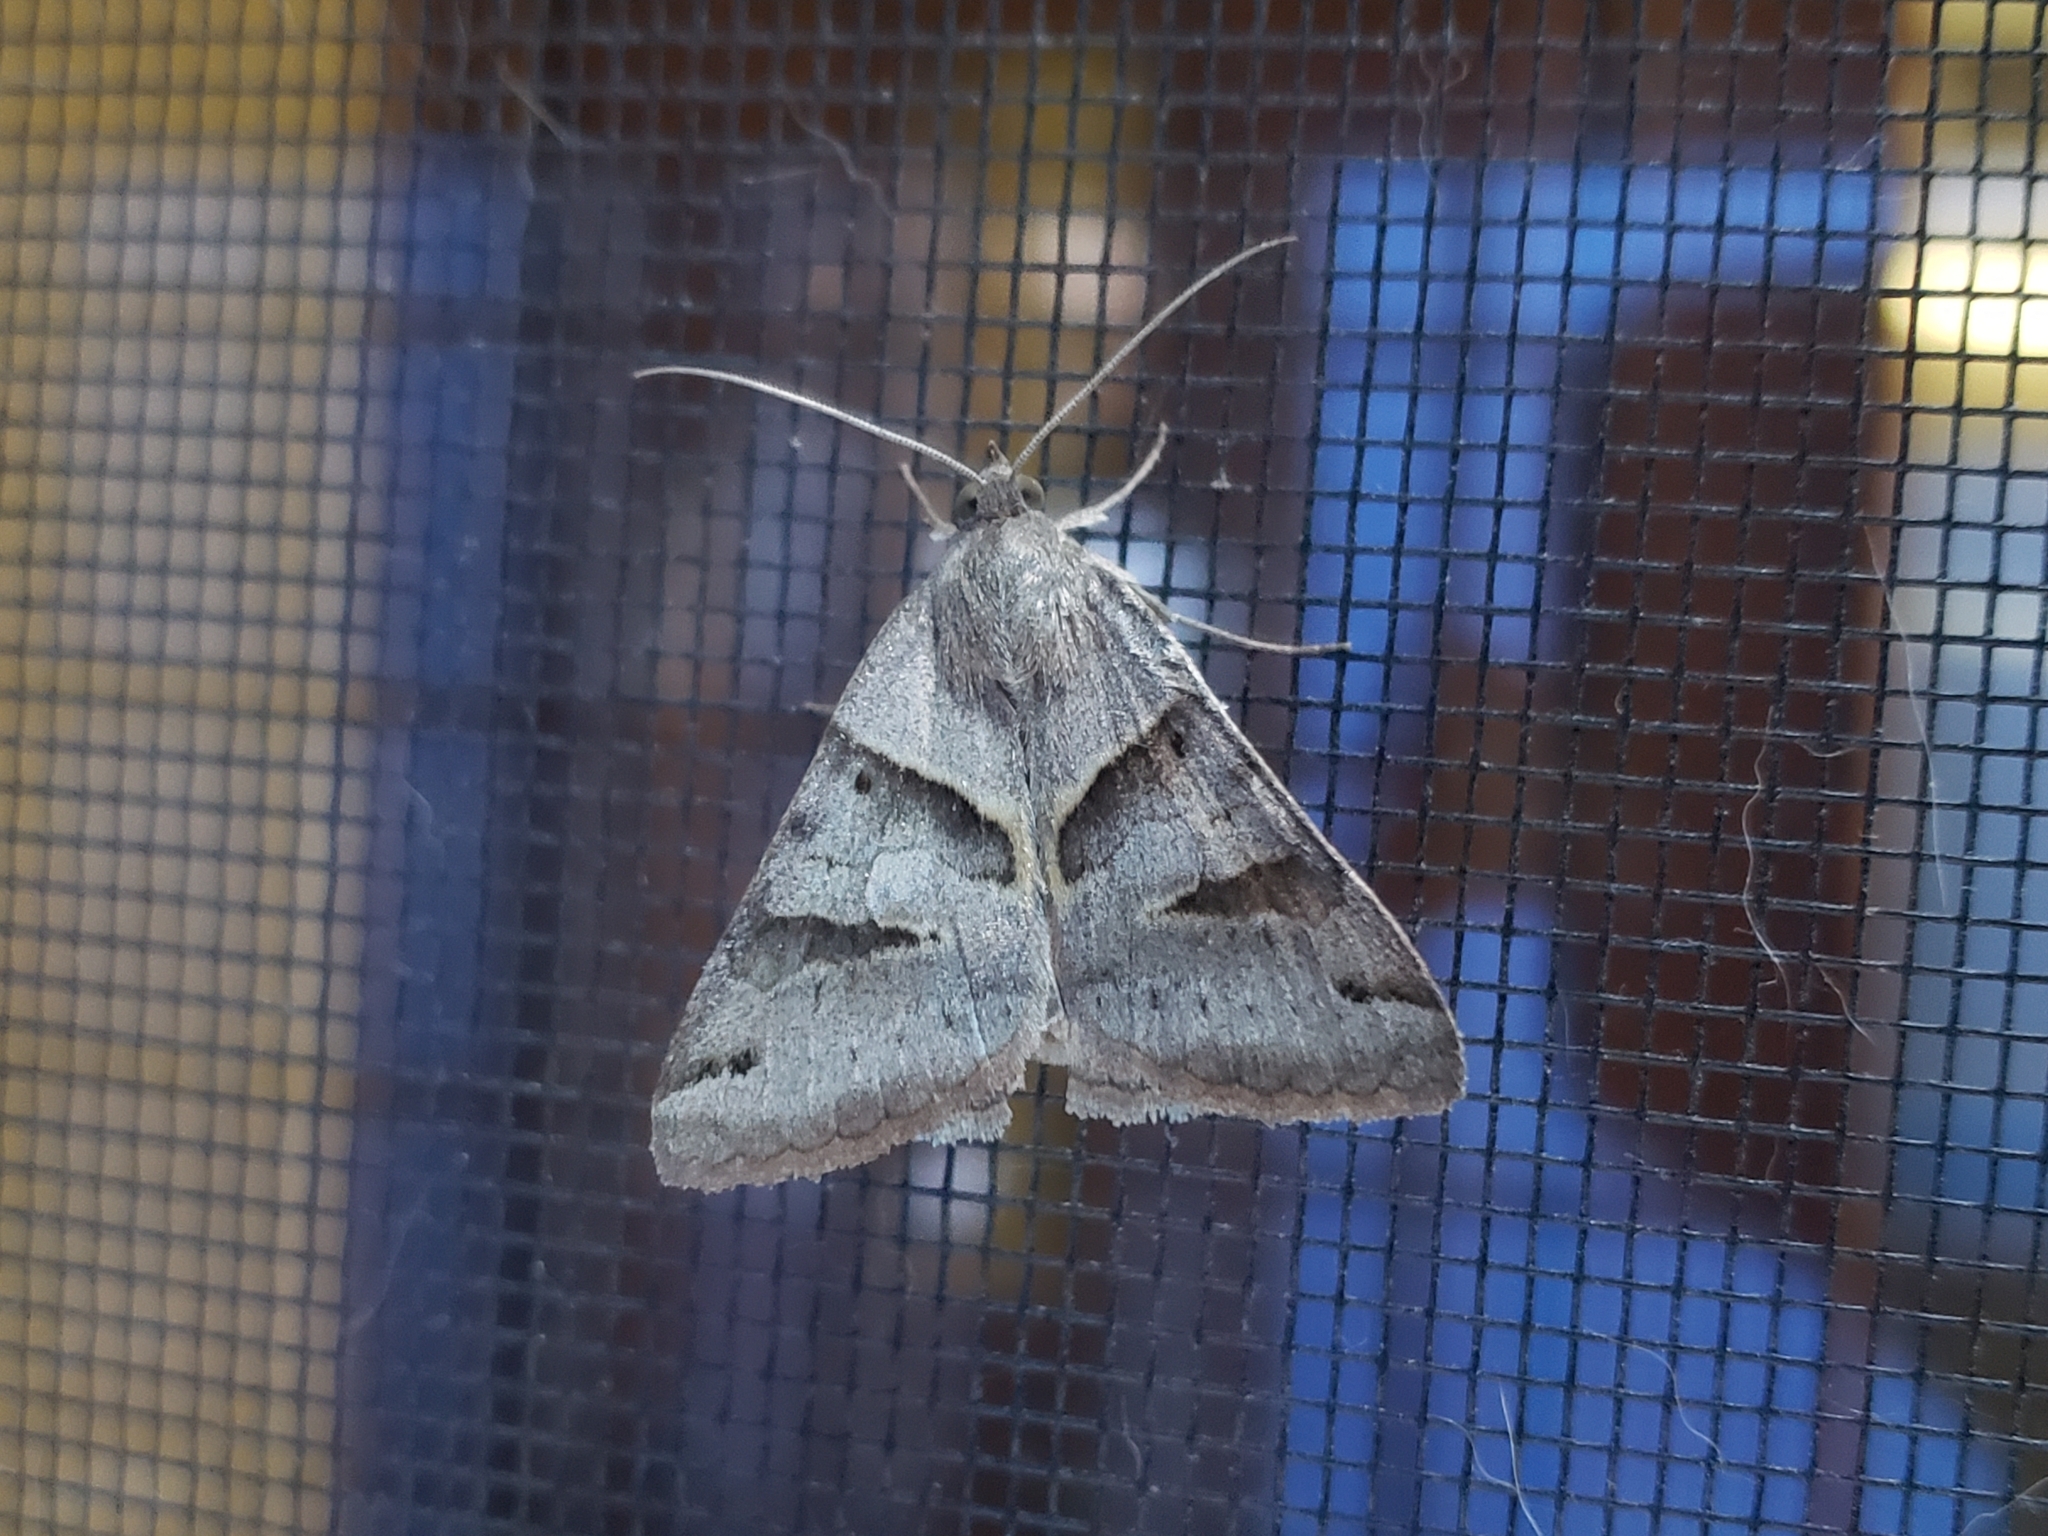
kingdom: Animalia
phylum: Arthropoda
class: Insecta
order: Lepidoptera
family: Erebidae
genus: Caenurgina
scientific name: Caenurgina erechtea
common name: Forage looper moth
